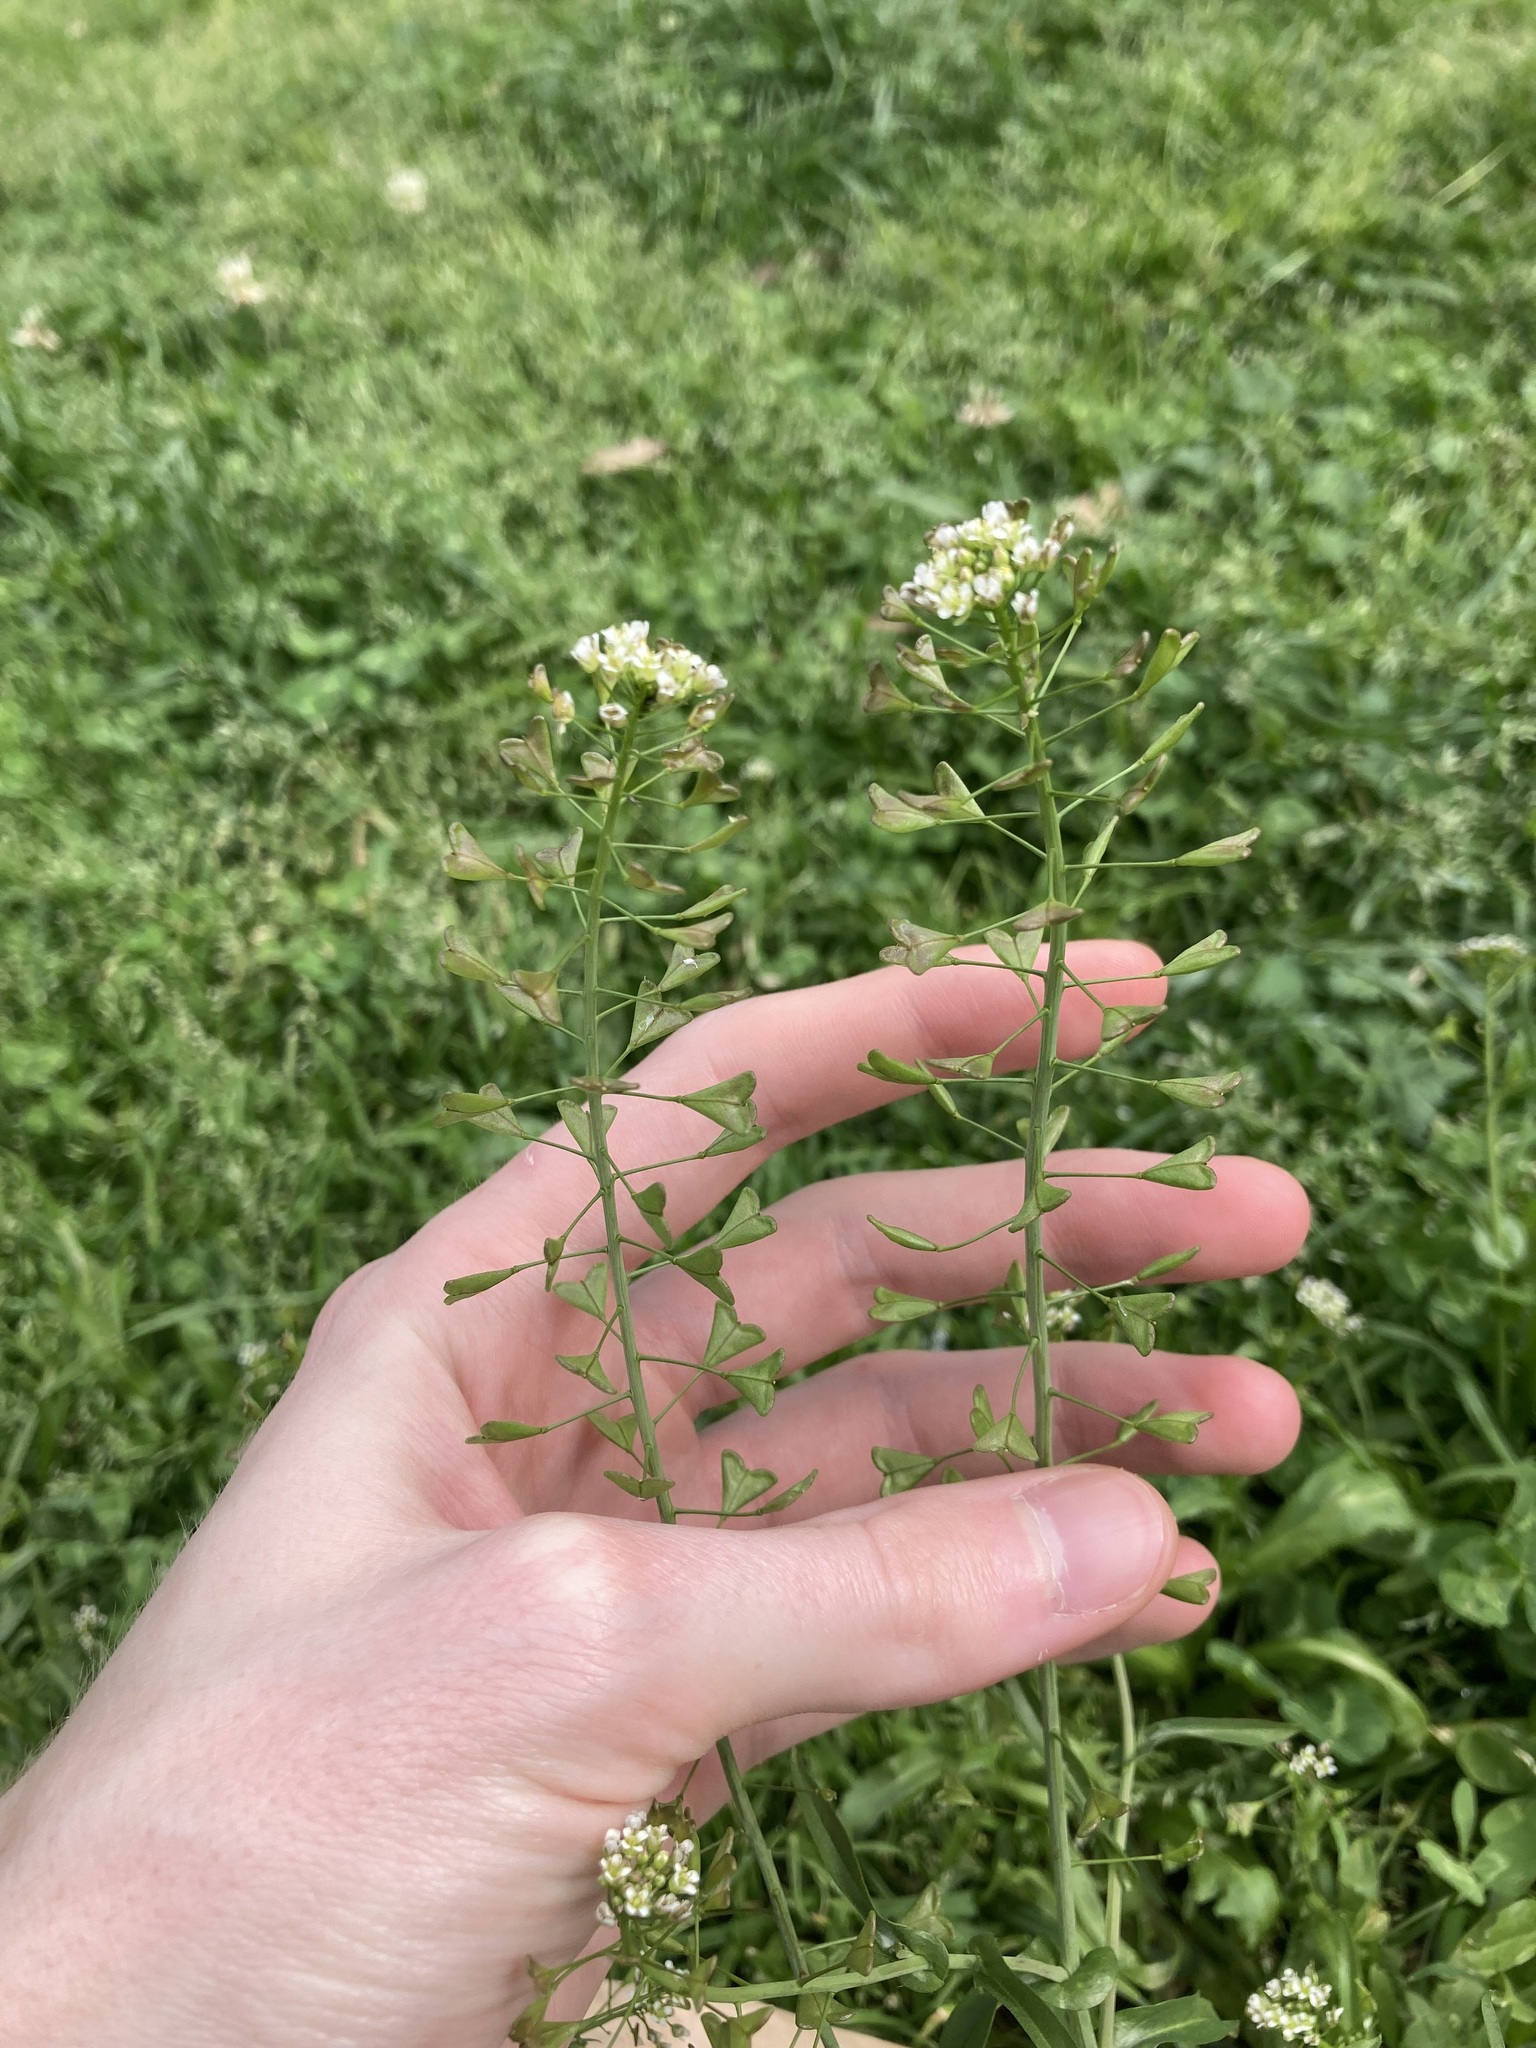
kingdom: Plantae
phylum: Tracheophyta
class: Magnoliopsida
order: Brassicales
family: Brassicaceae
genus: Capsella
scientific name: Capsella bursa-pastoris
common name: Shepherd's purse
